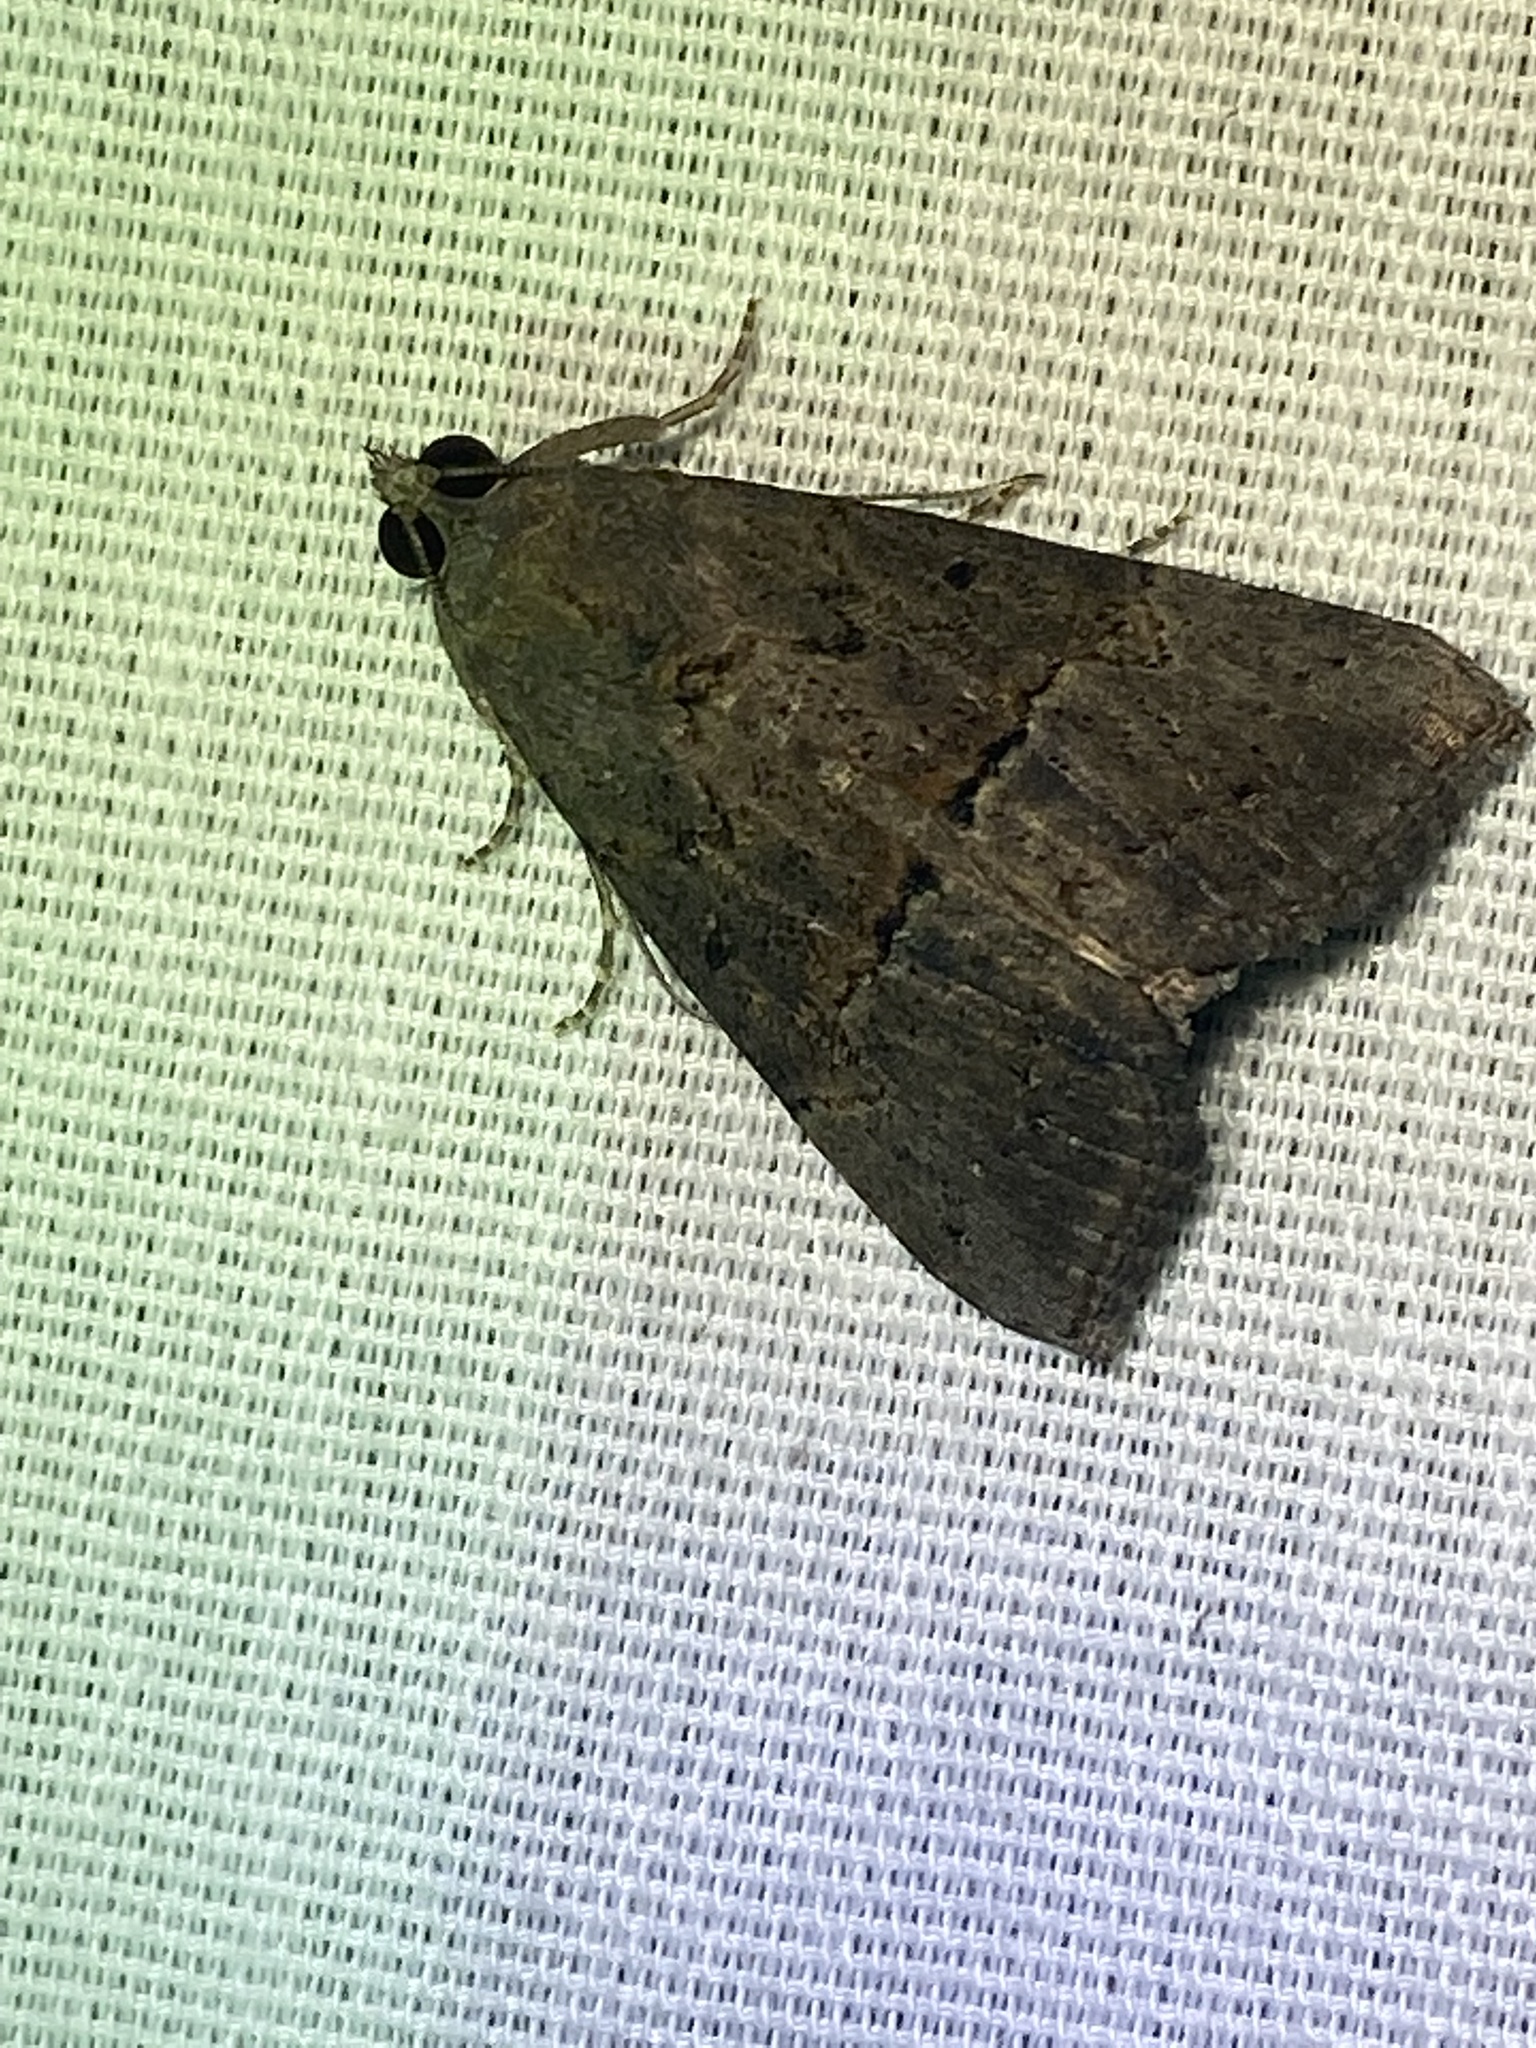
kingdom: Animalia
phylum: Arthropoda
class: Insecta
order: Lepidoptera
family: Erebidae
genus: Hypena
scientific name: Hypena scabra
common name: Green cloverworm
